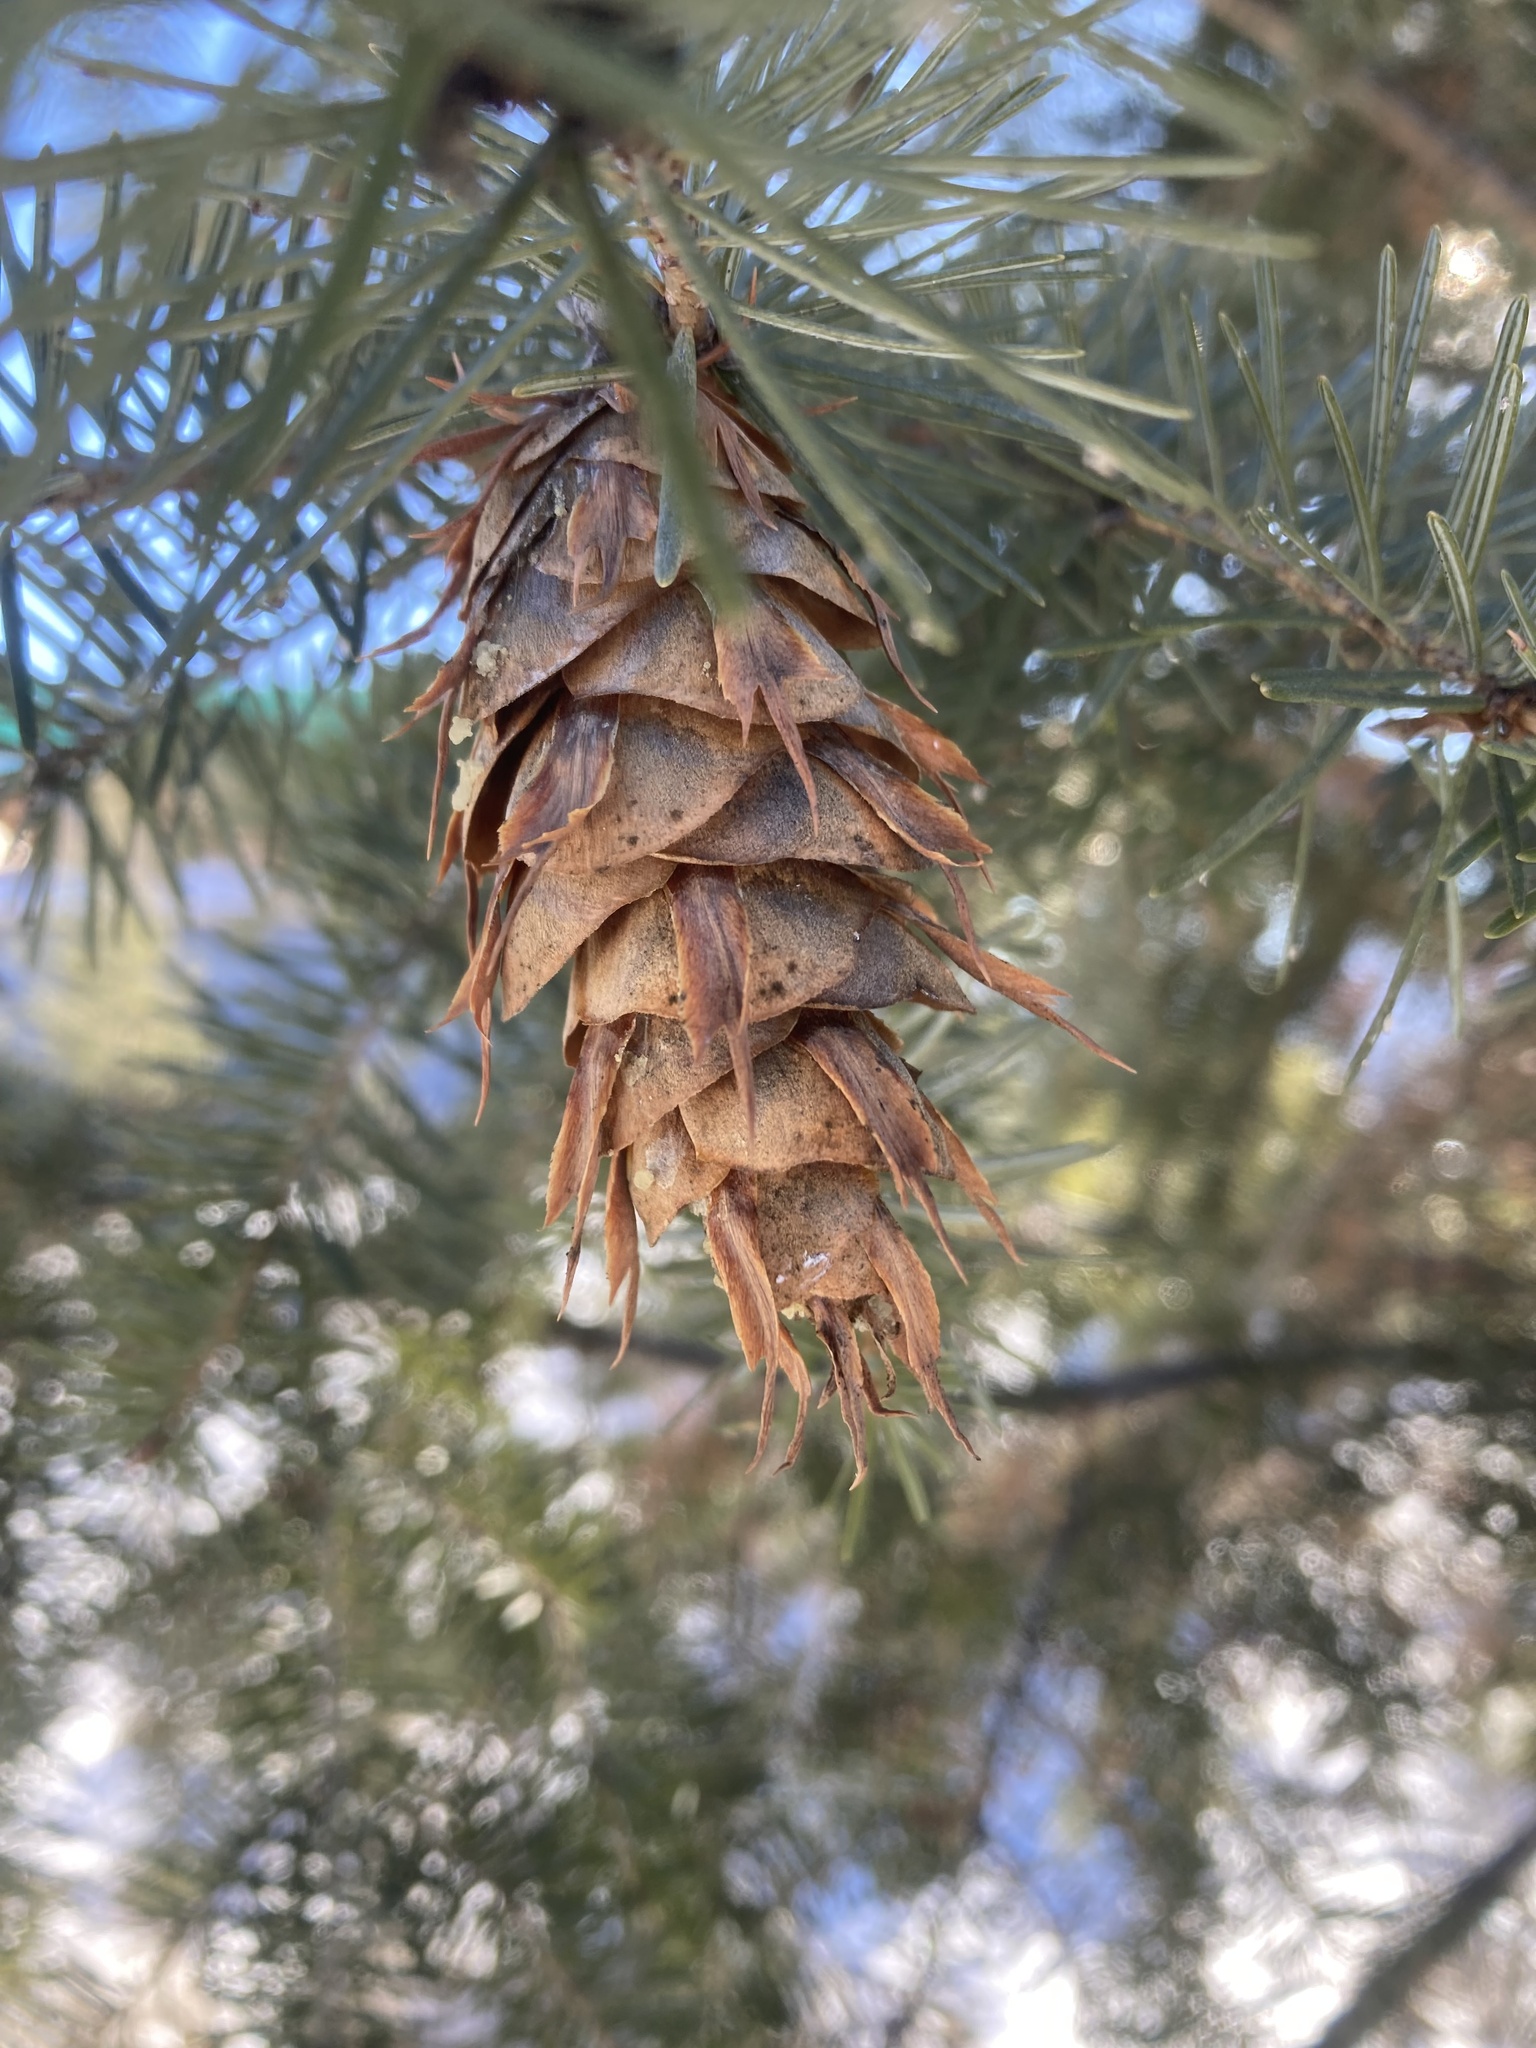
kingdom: Plantae
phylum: Tracheophyta
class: Pinopsida
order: Pinales
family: Pinaceae
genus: Pseudotsuga
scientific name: Pseudotsuga menziesii
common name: Douglas fir
